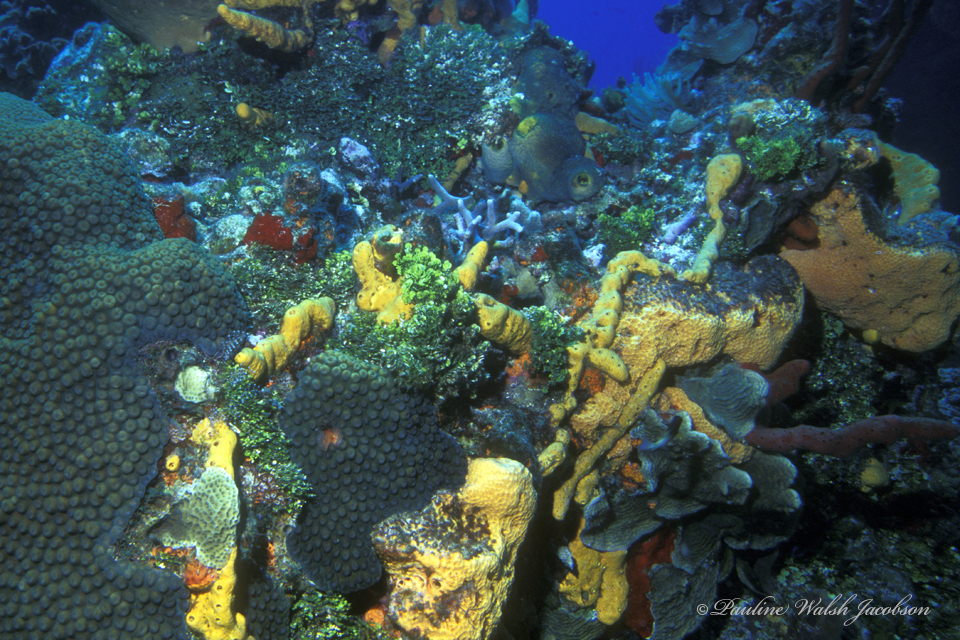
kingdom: Animalia
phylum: Porifera
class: Demospongiae
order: Agelasida
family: Agelasidae
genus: Agelas
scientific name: Agelas sceptrum
